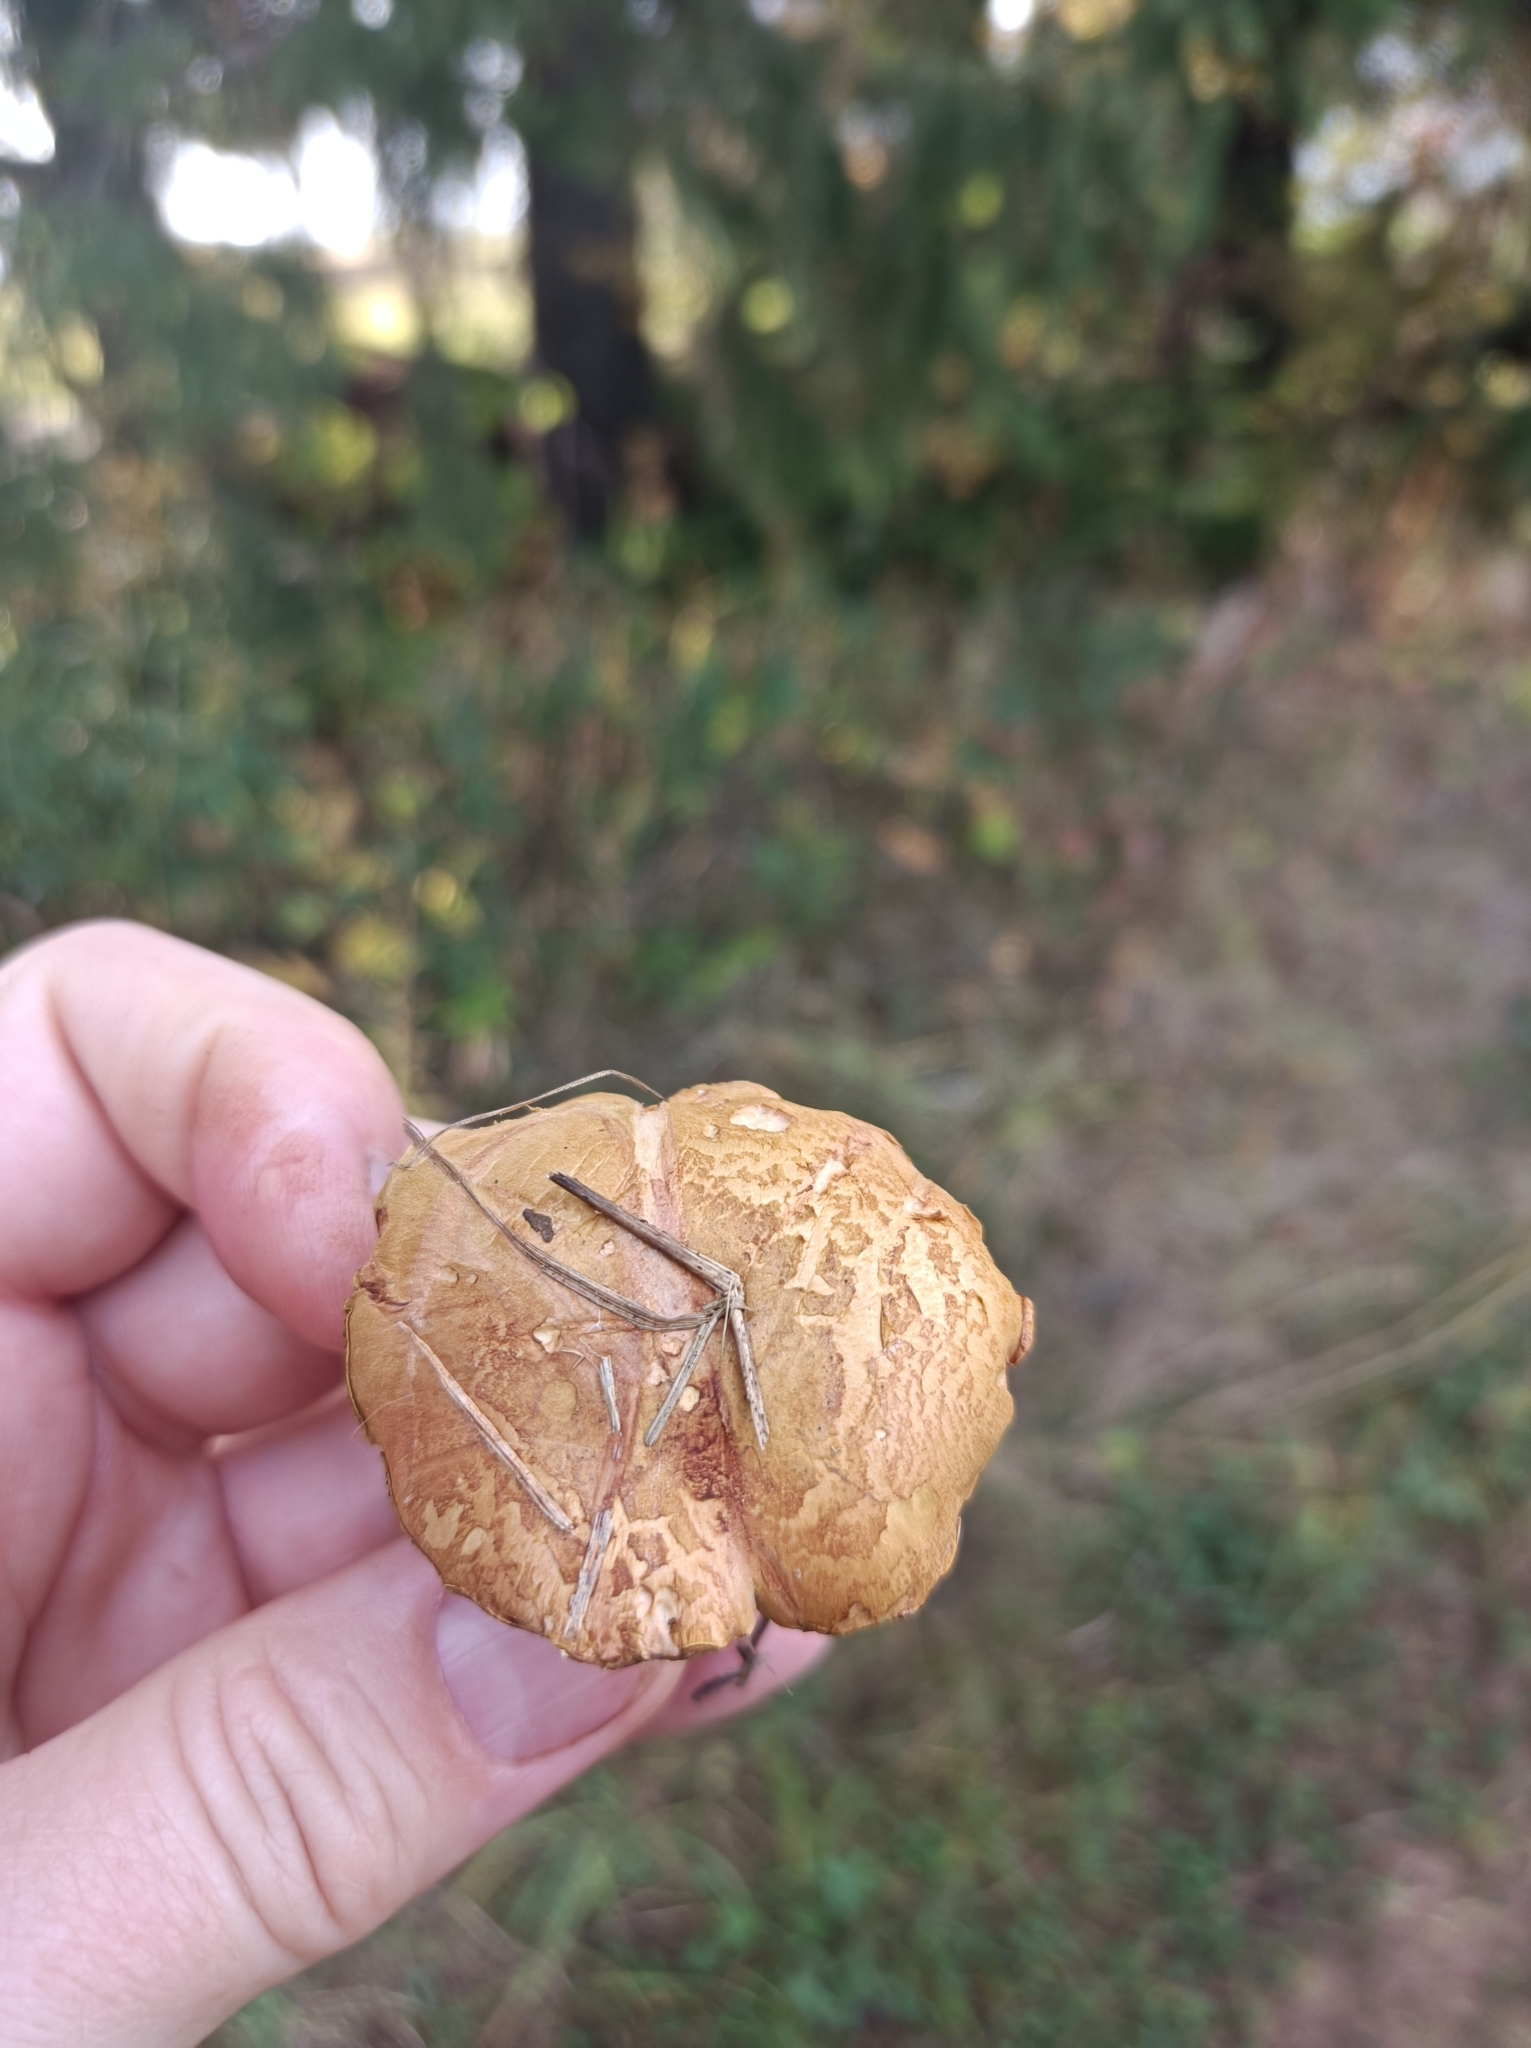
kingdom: Fungi
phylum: Basidiomycota
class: Agaricomycetes
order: Boletales
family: Boletaceae
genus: Chalciporus
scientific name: Chalciporus piperatus
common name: Peppery bolete
